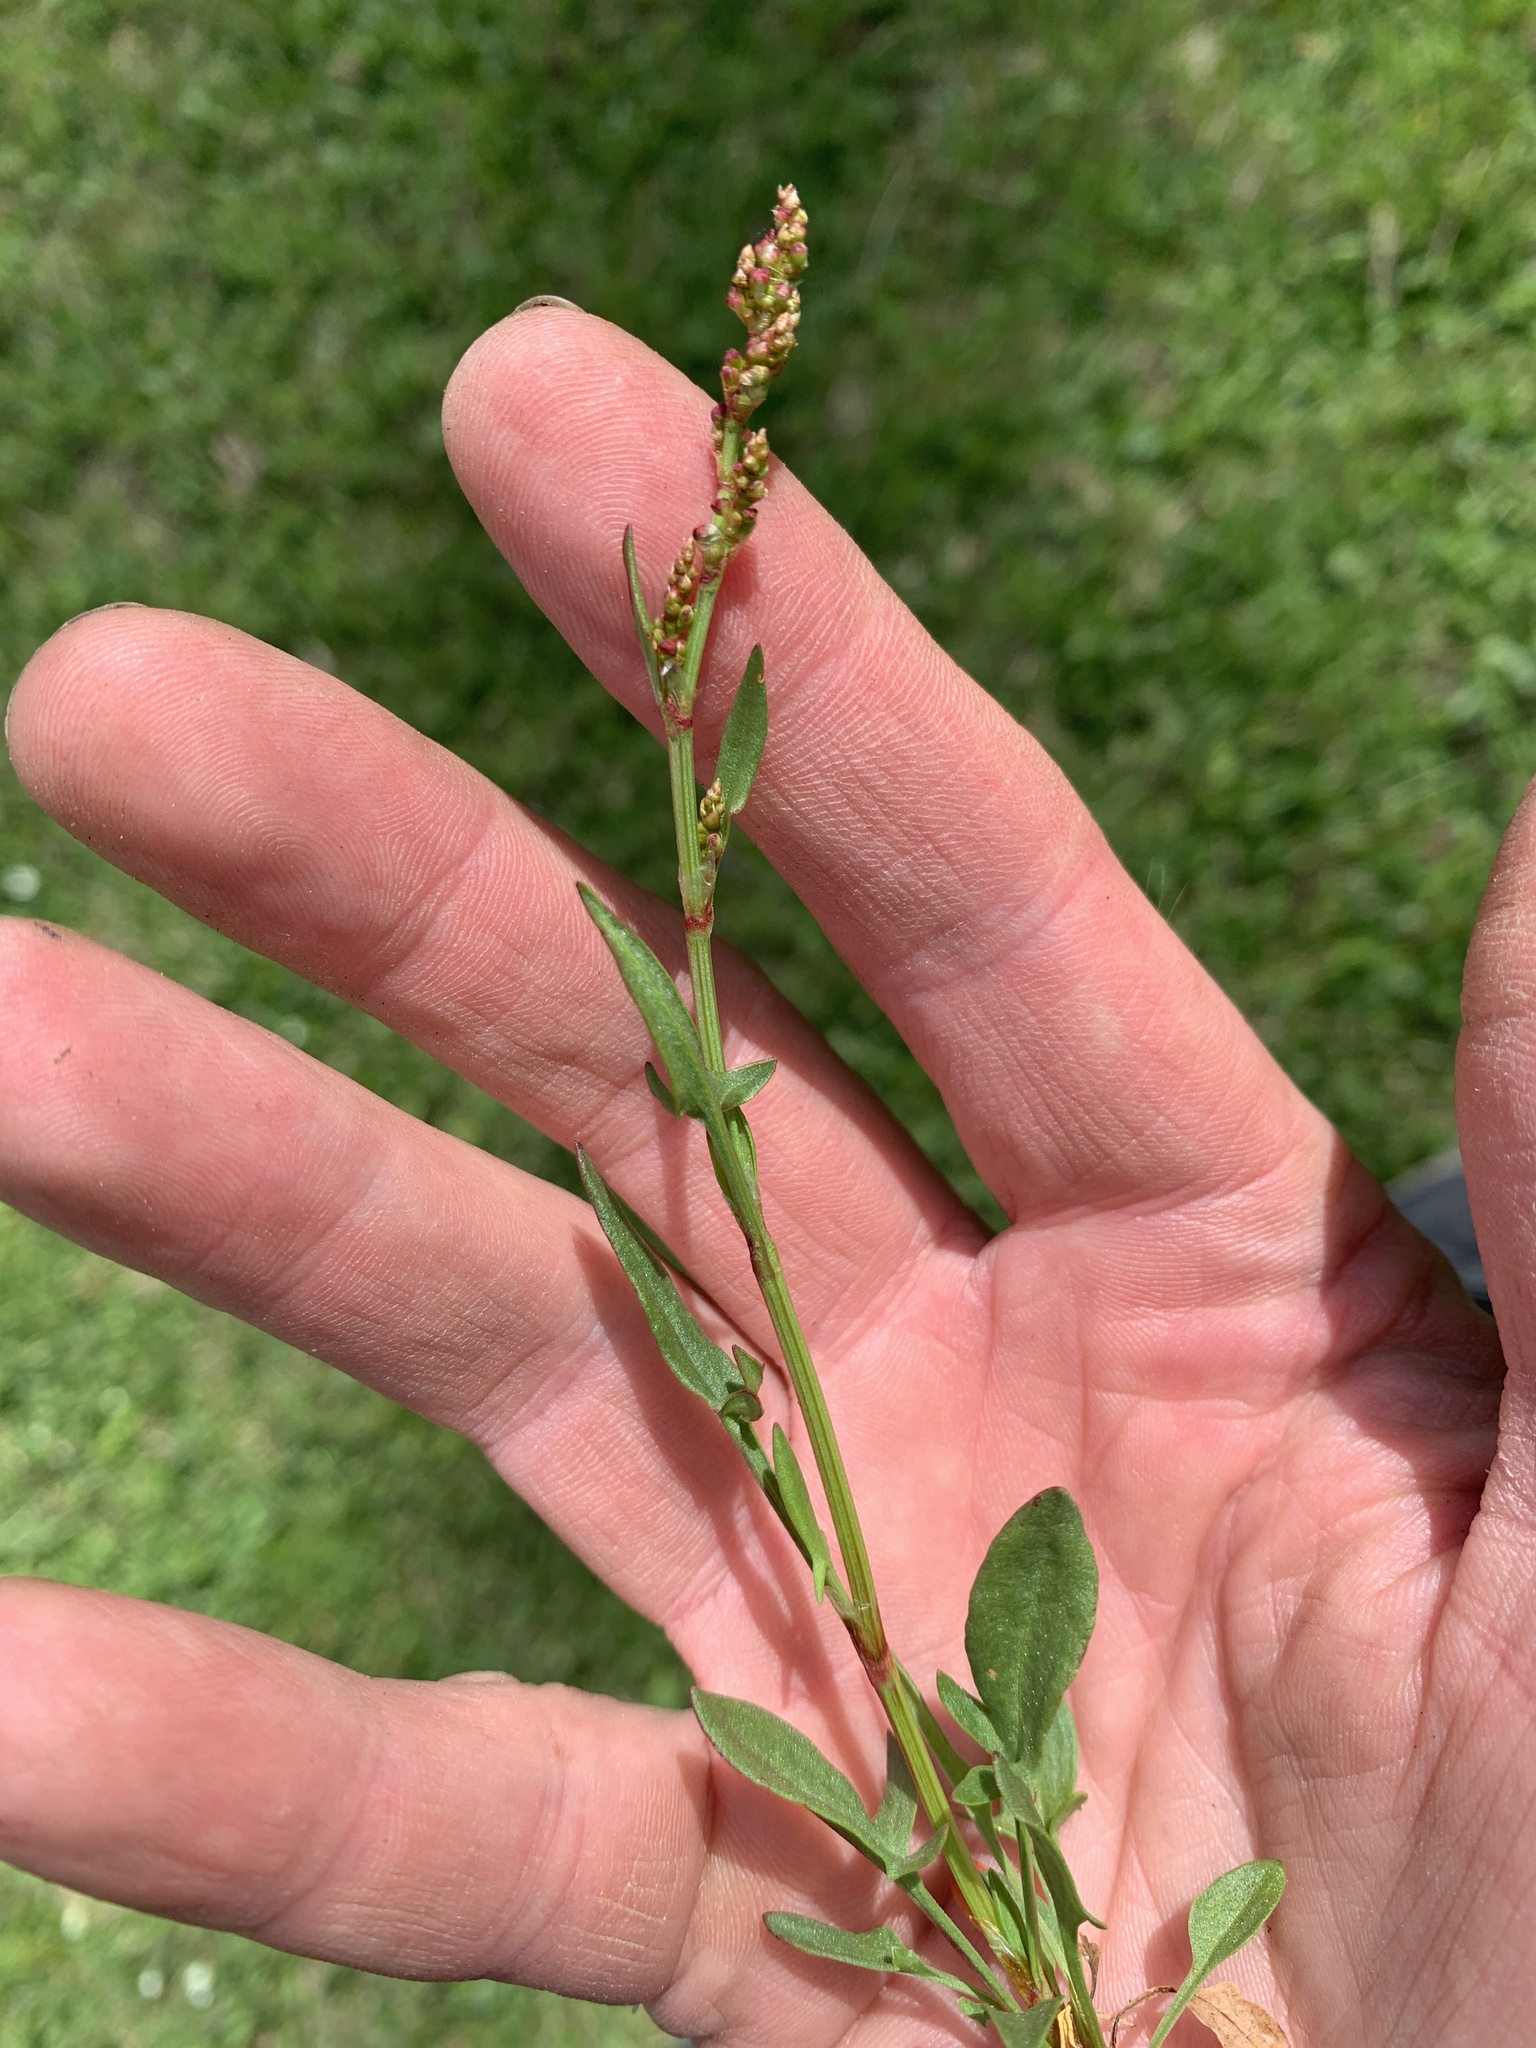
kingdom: Plantae
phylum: Tracheophyta
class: Magnoliopsida
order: Caryophyllales
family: Polygonaceae
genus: Rumex
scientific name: Rumex acetosella
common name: Common sheep sorrel
